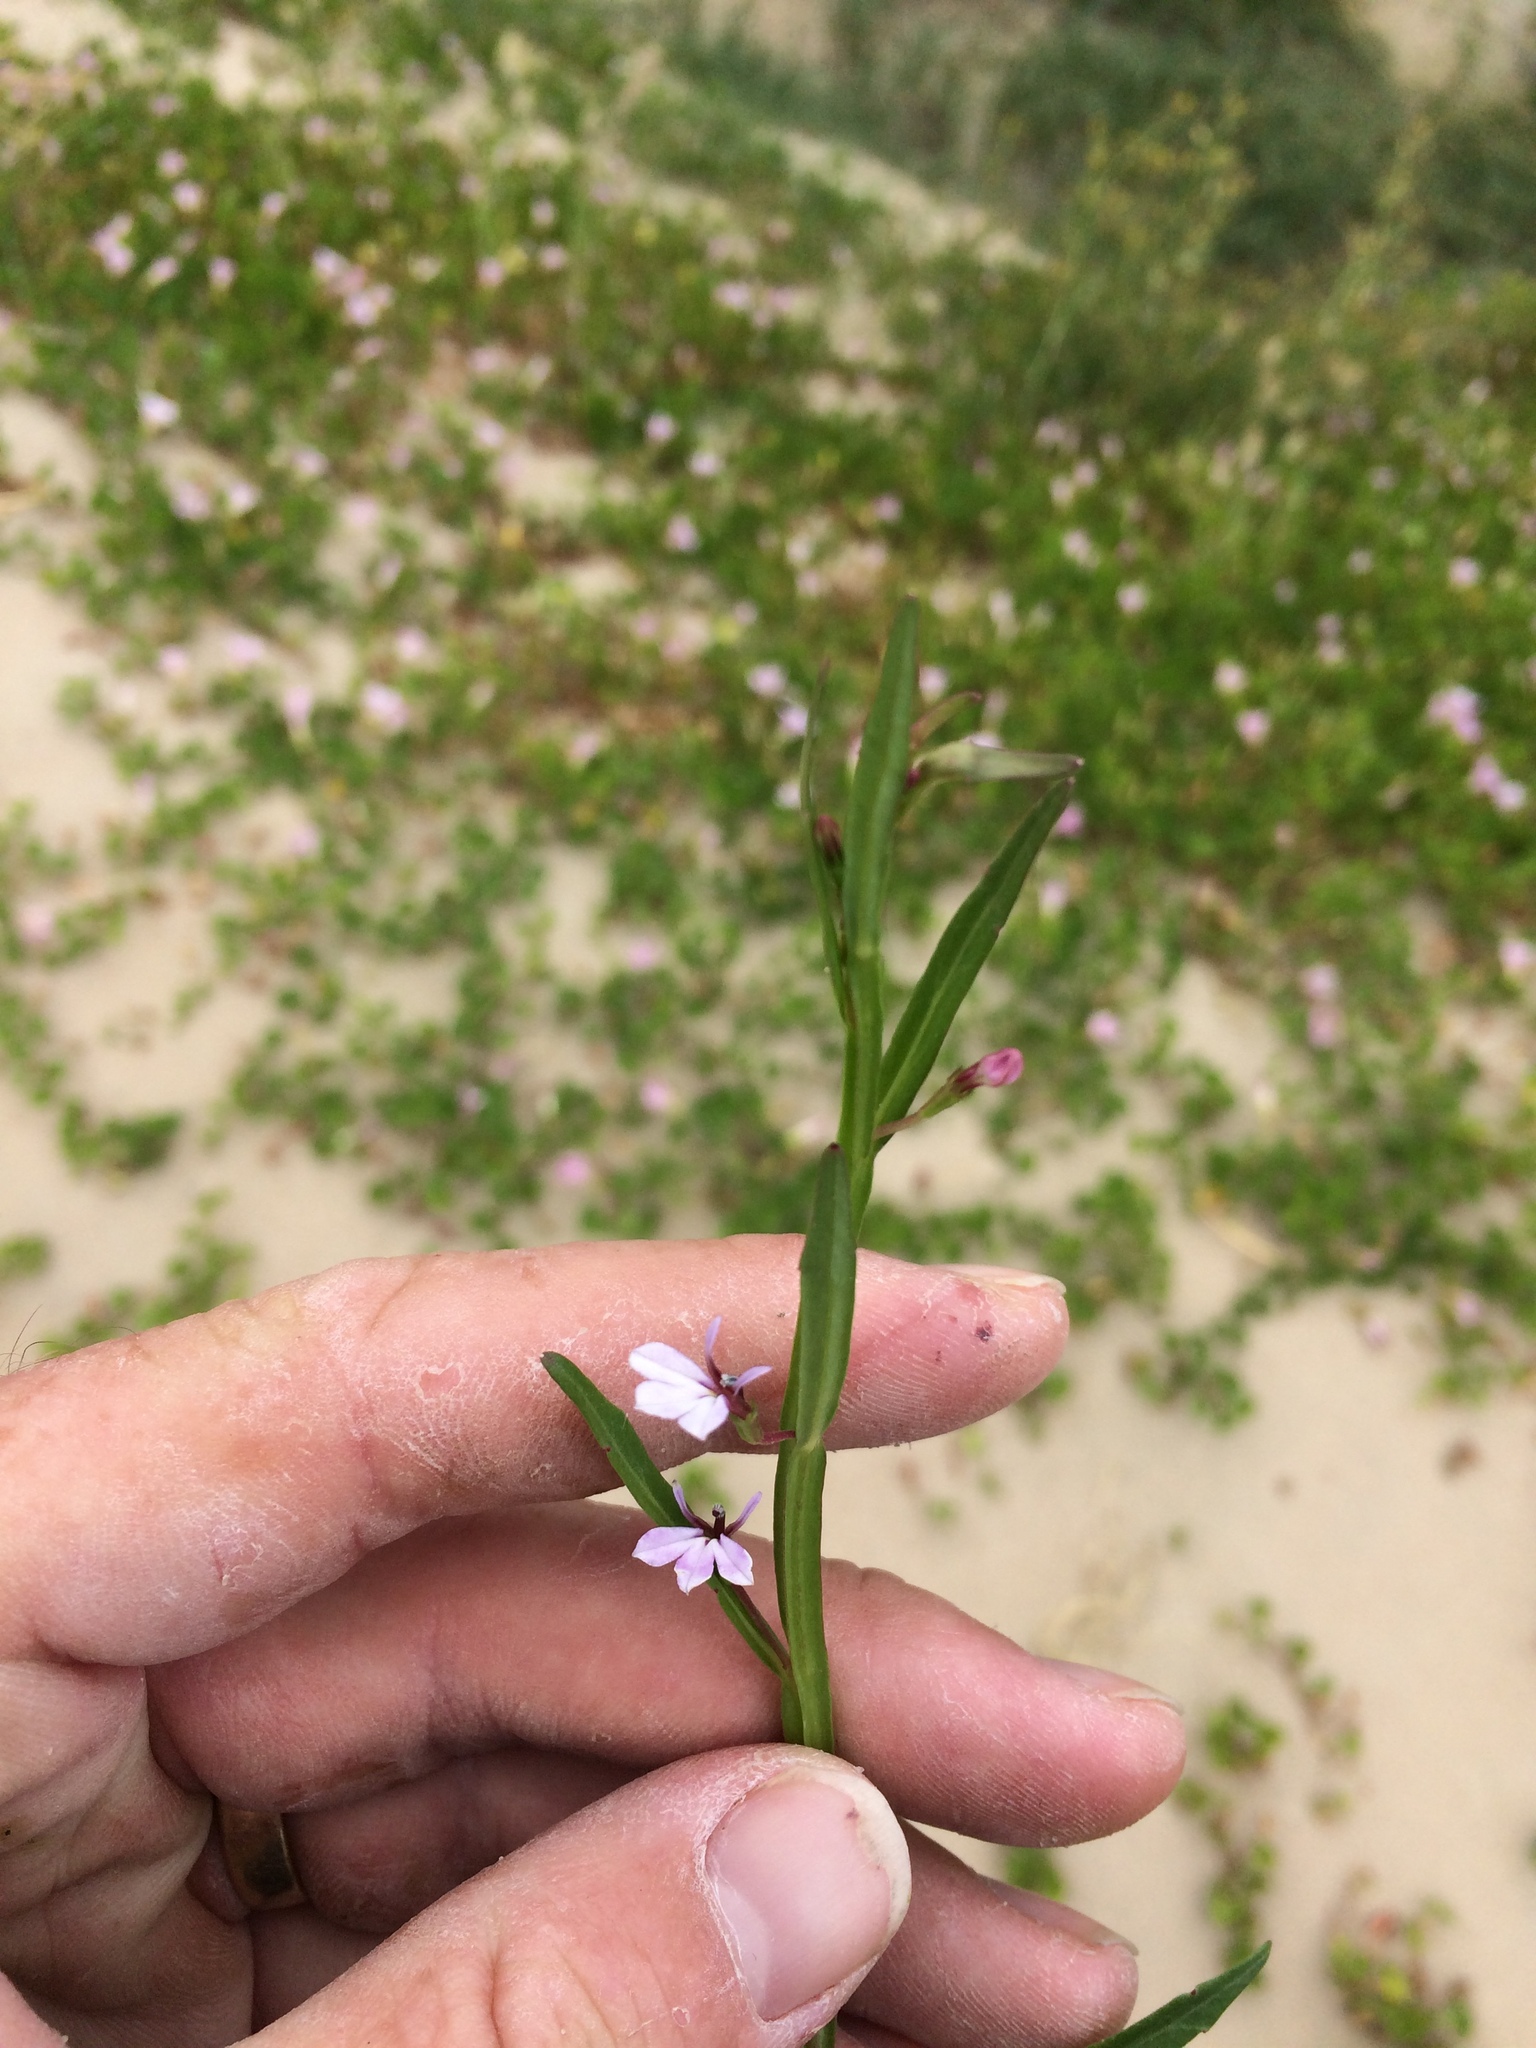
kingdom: Plantae
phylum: Tracheophyta
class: Magnoliopsida
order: Asterales
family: Campanulaceae
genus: Lobelia
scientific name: Lobelia anceps
